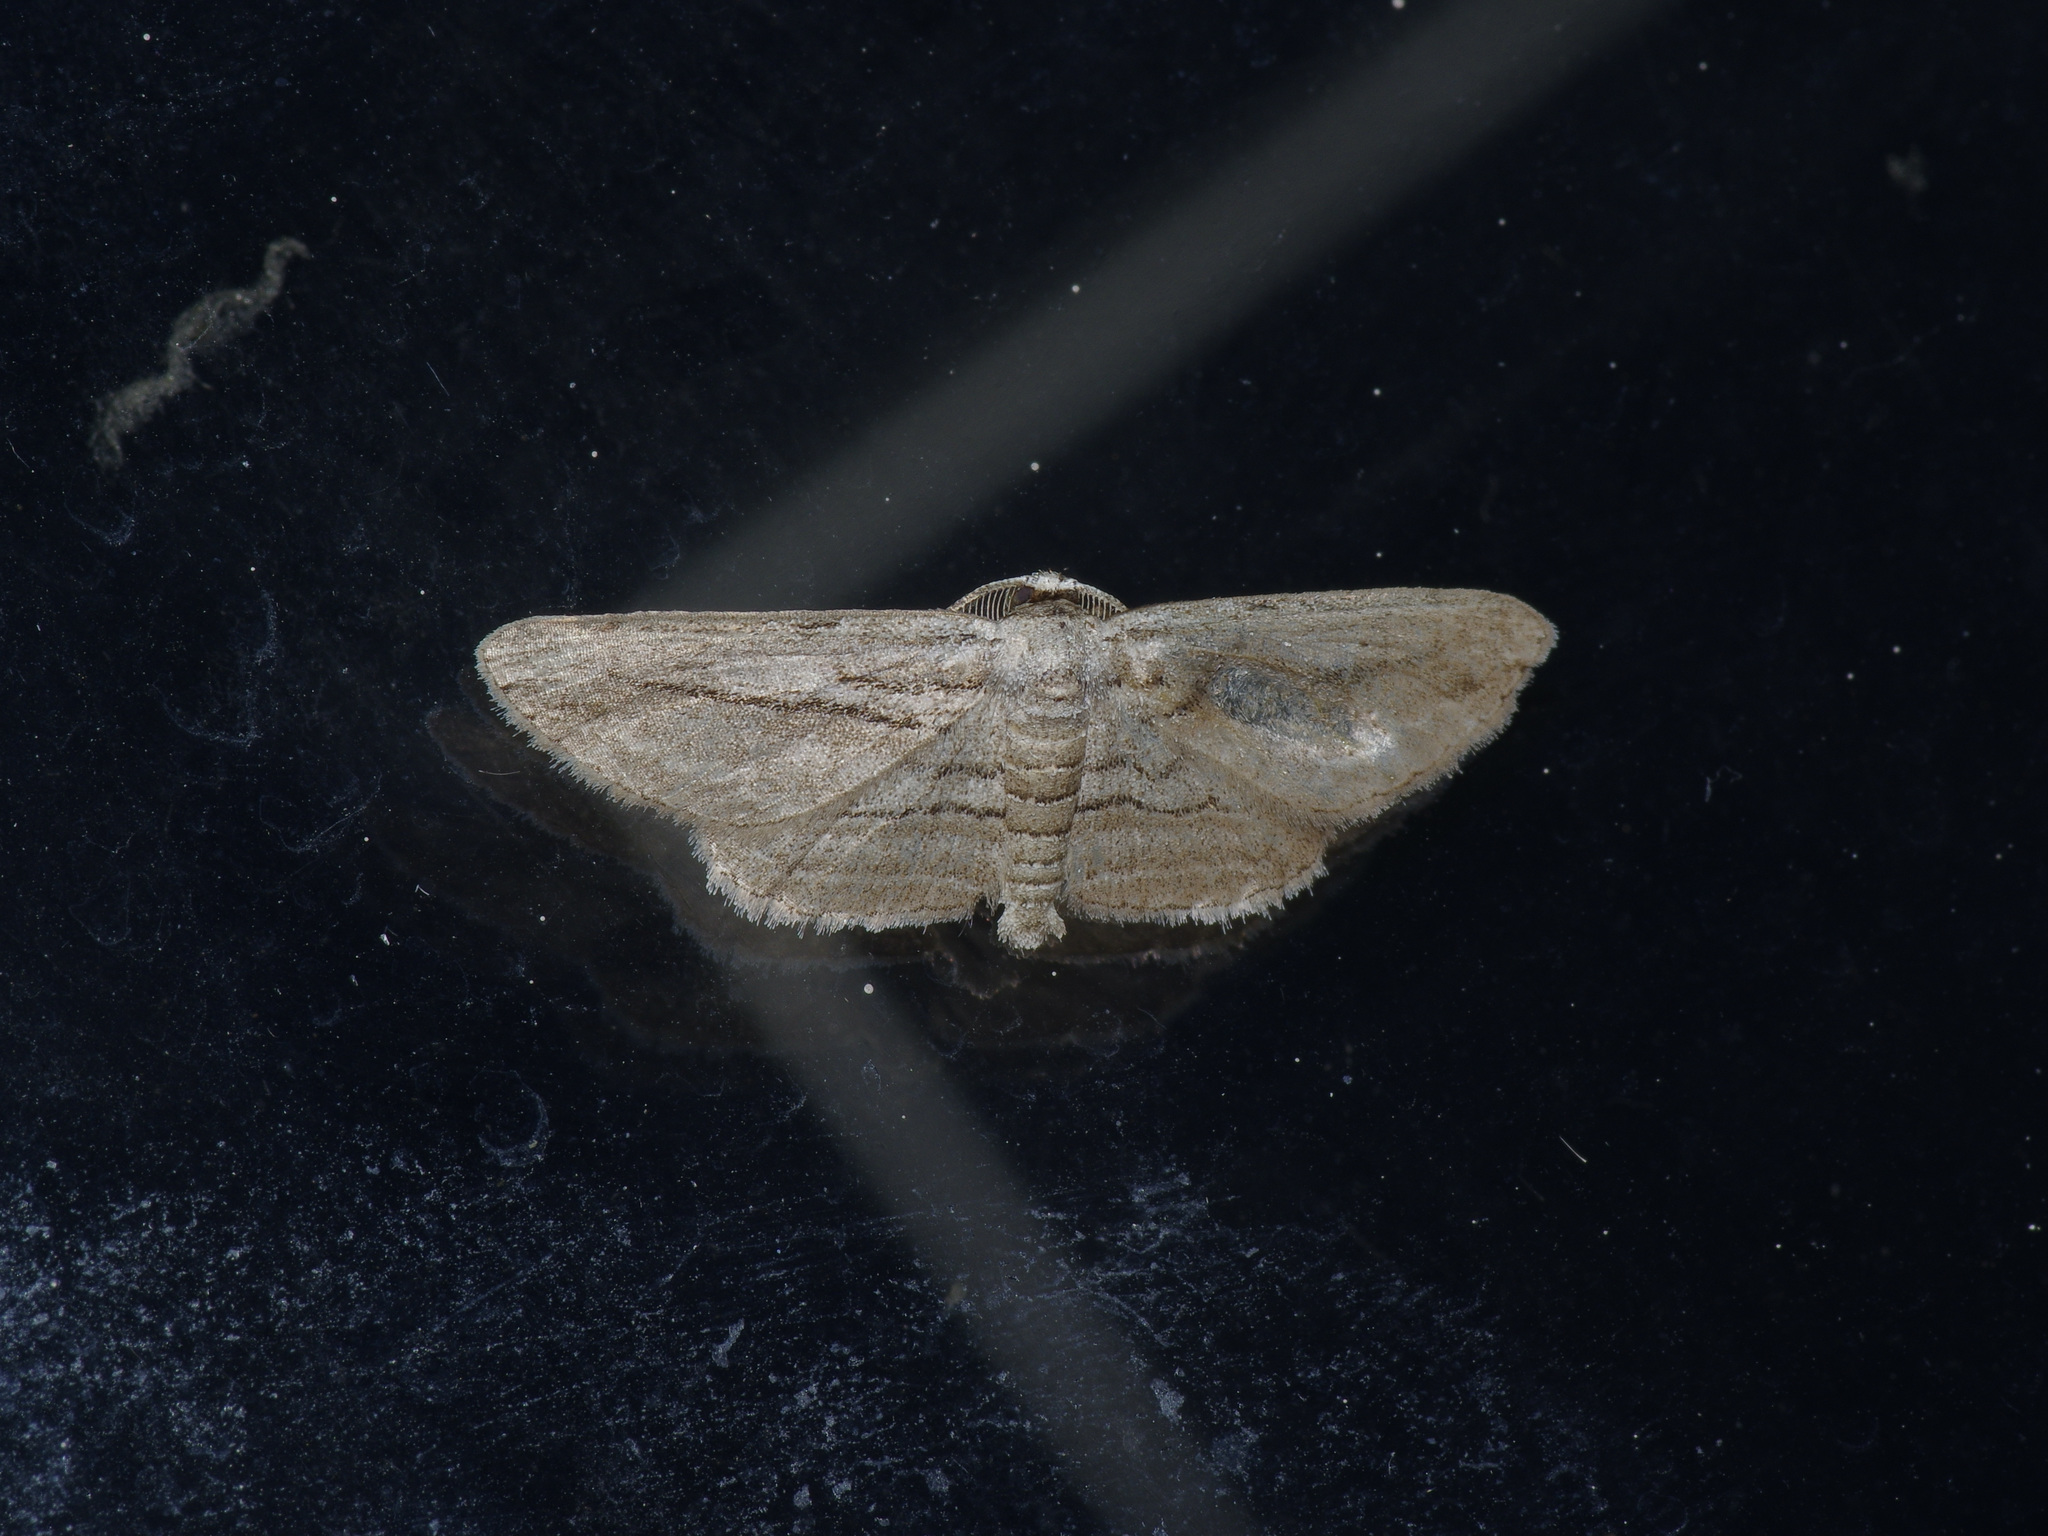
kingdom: Animalia
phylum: Arthropoda
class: Insecta
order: Lepidoptera
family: Geometridae
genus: Glena
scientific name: Glena quinquelinearia
